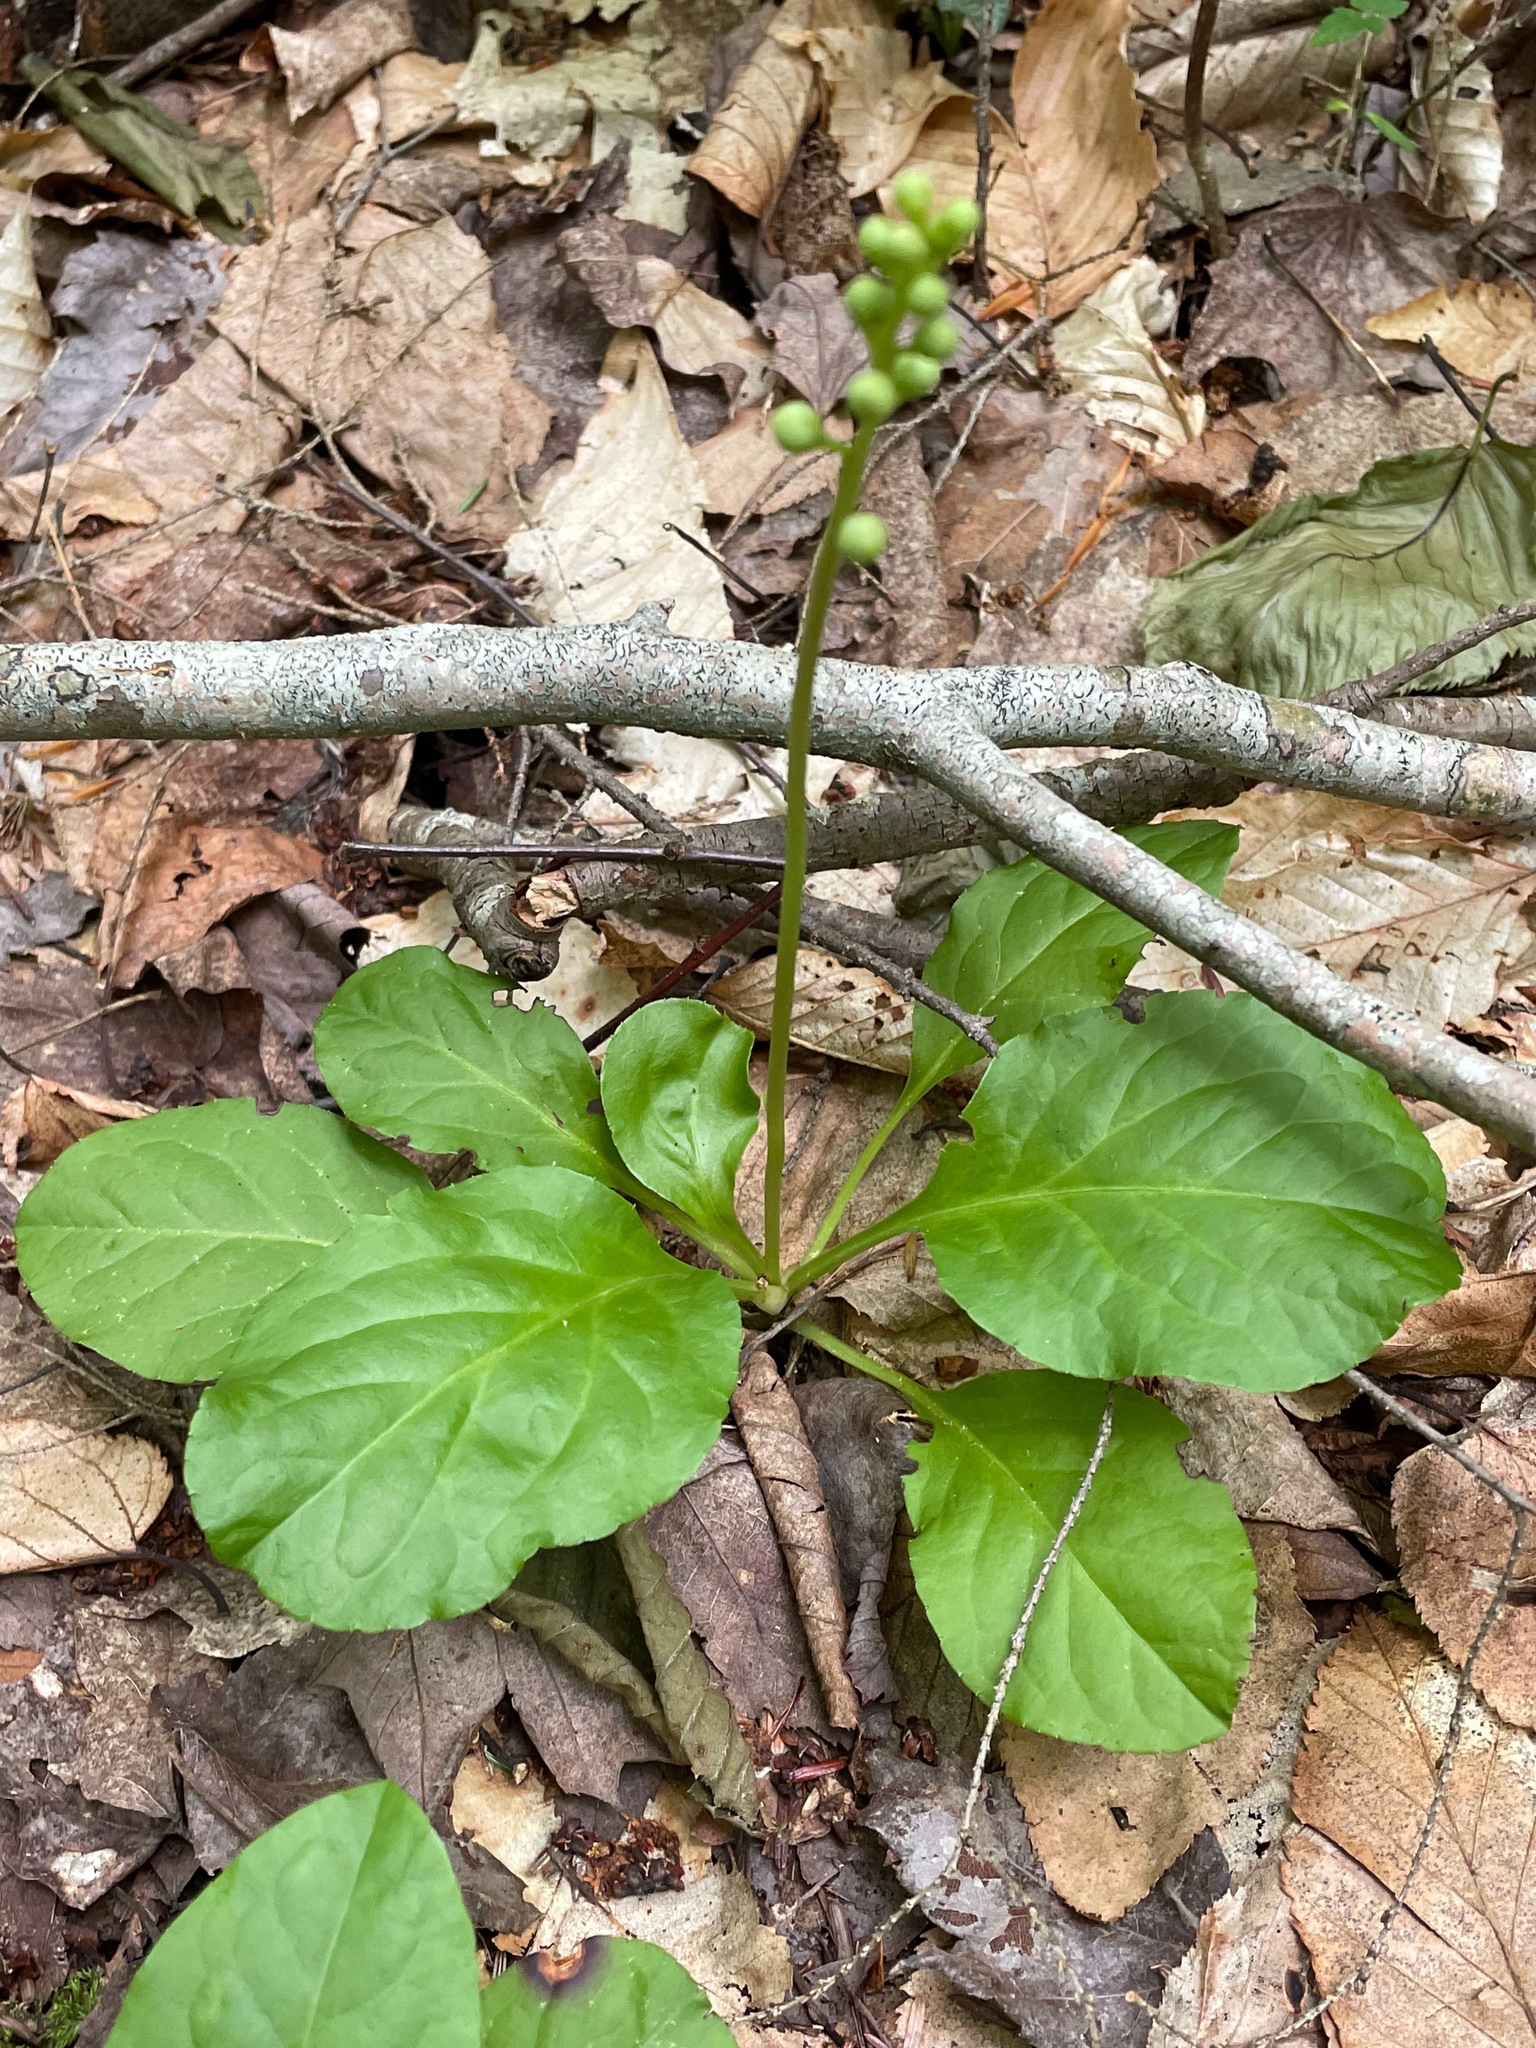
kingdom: Plantae
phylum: Tracheophyta
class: Magnoliopsida
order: Ericales
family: Ericaceae
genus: Pyrola
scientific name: Pyrola elliptica
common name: Shinleaf
